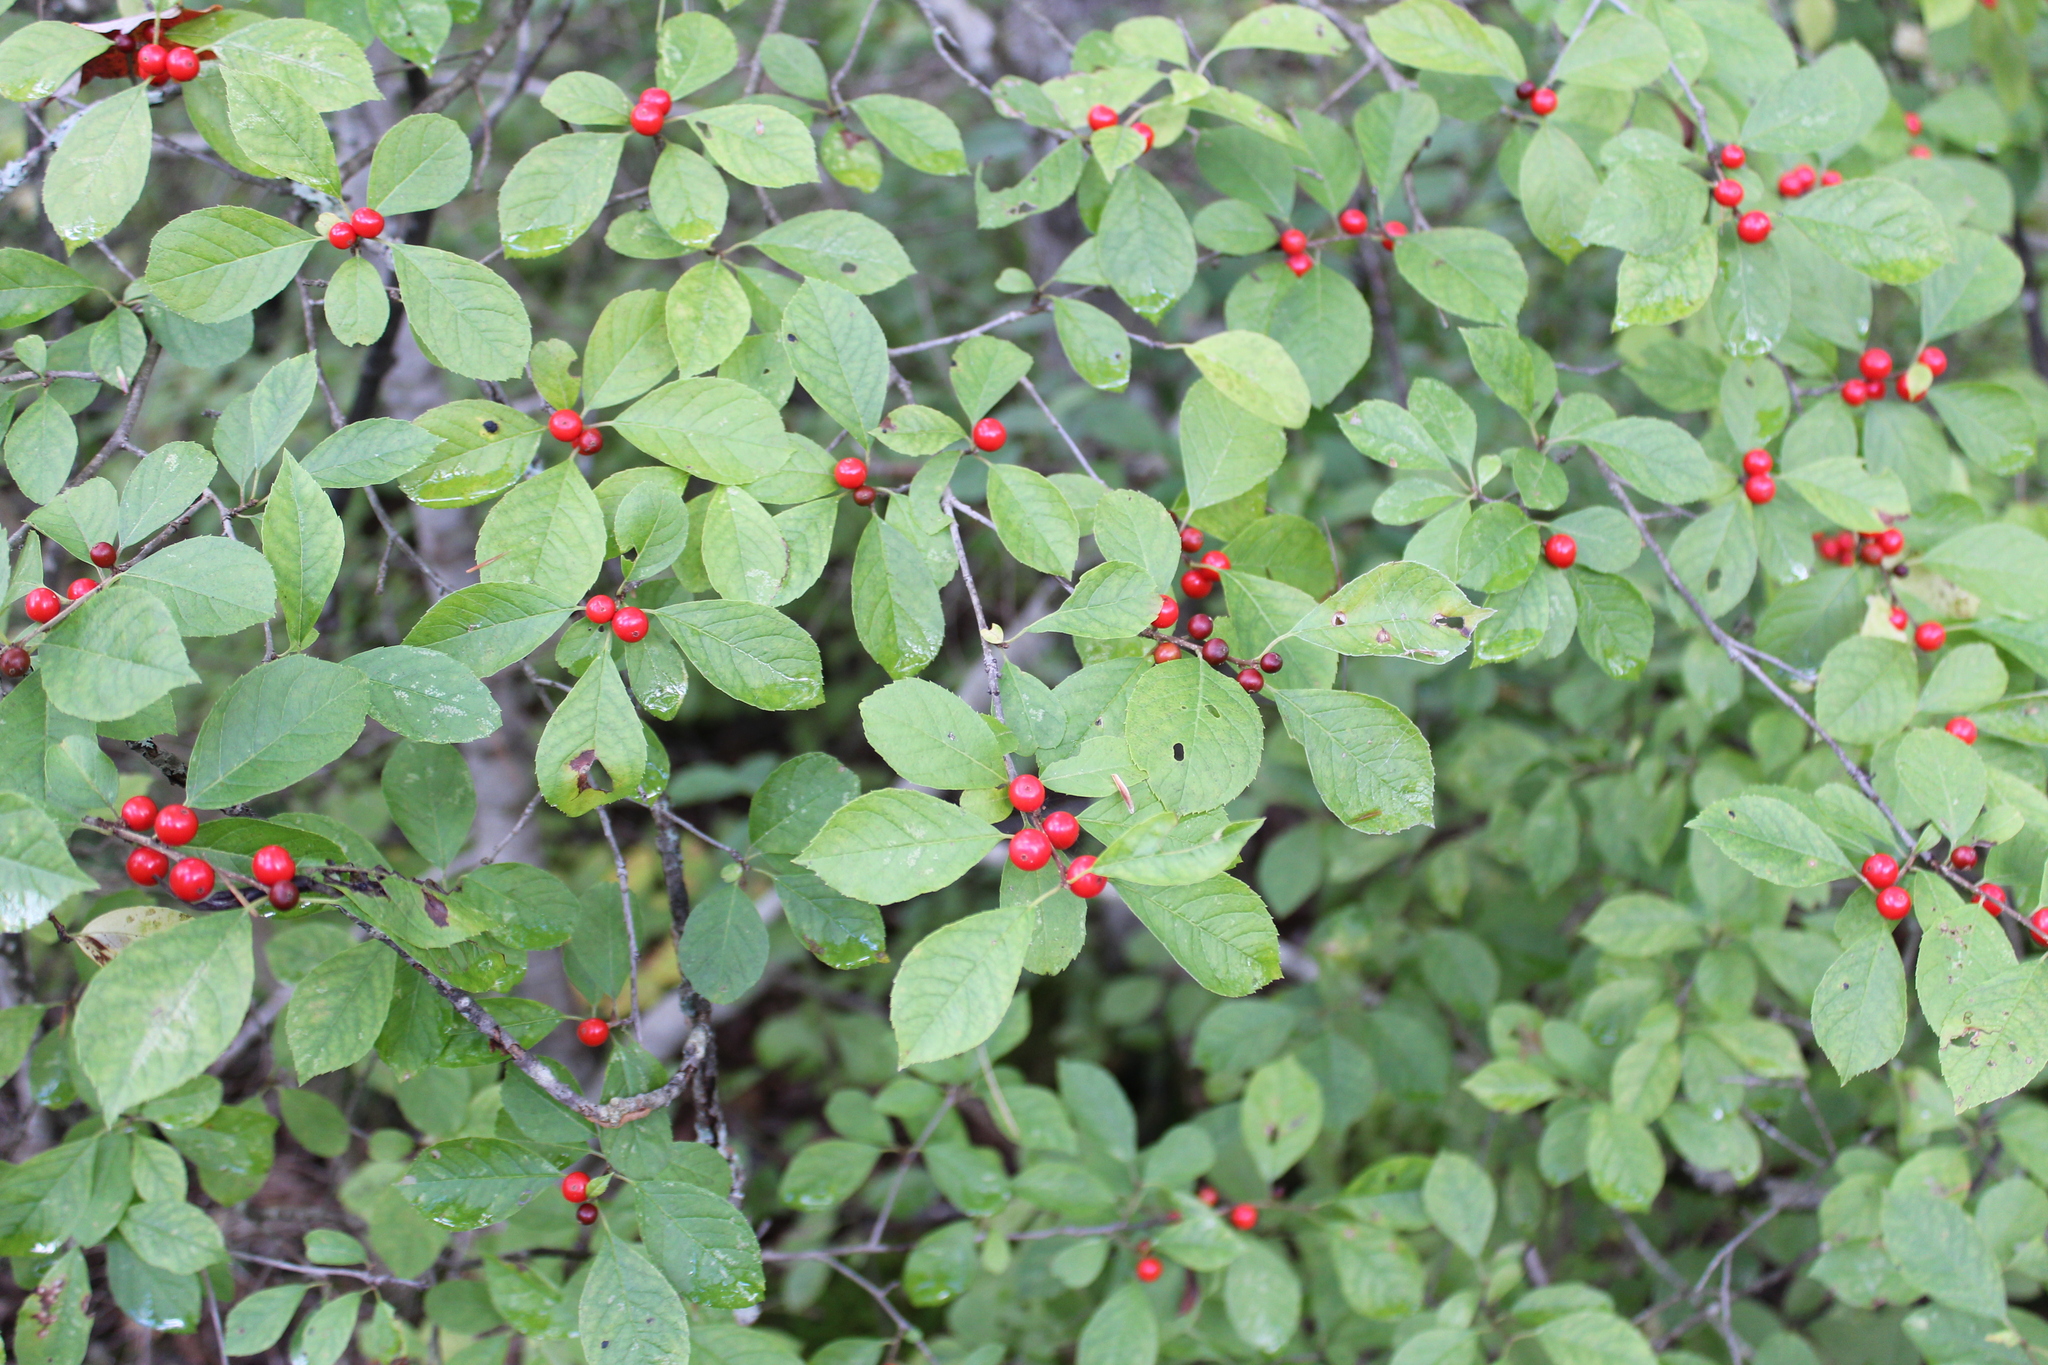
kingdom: Plantae
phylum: Tracheophyta
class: Magnoliopsida
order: Aquifoliales
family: Aquifoliaceae
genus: Ilex
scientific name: Ilex verticillata
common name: Virginia winterberry
